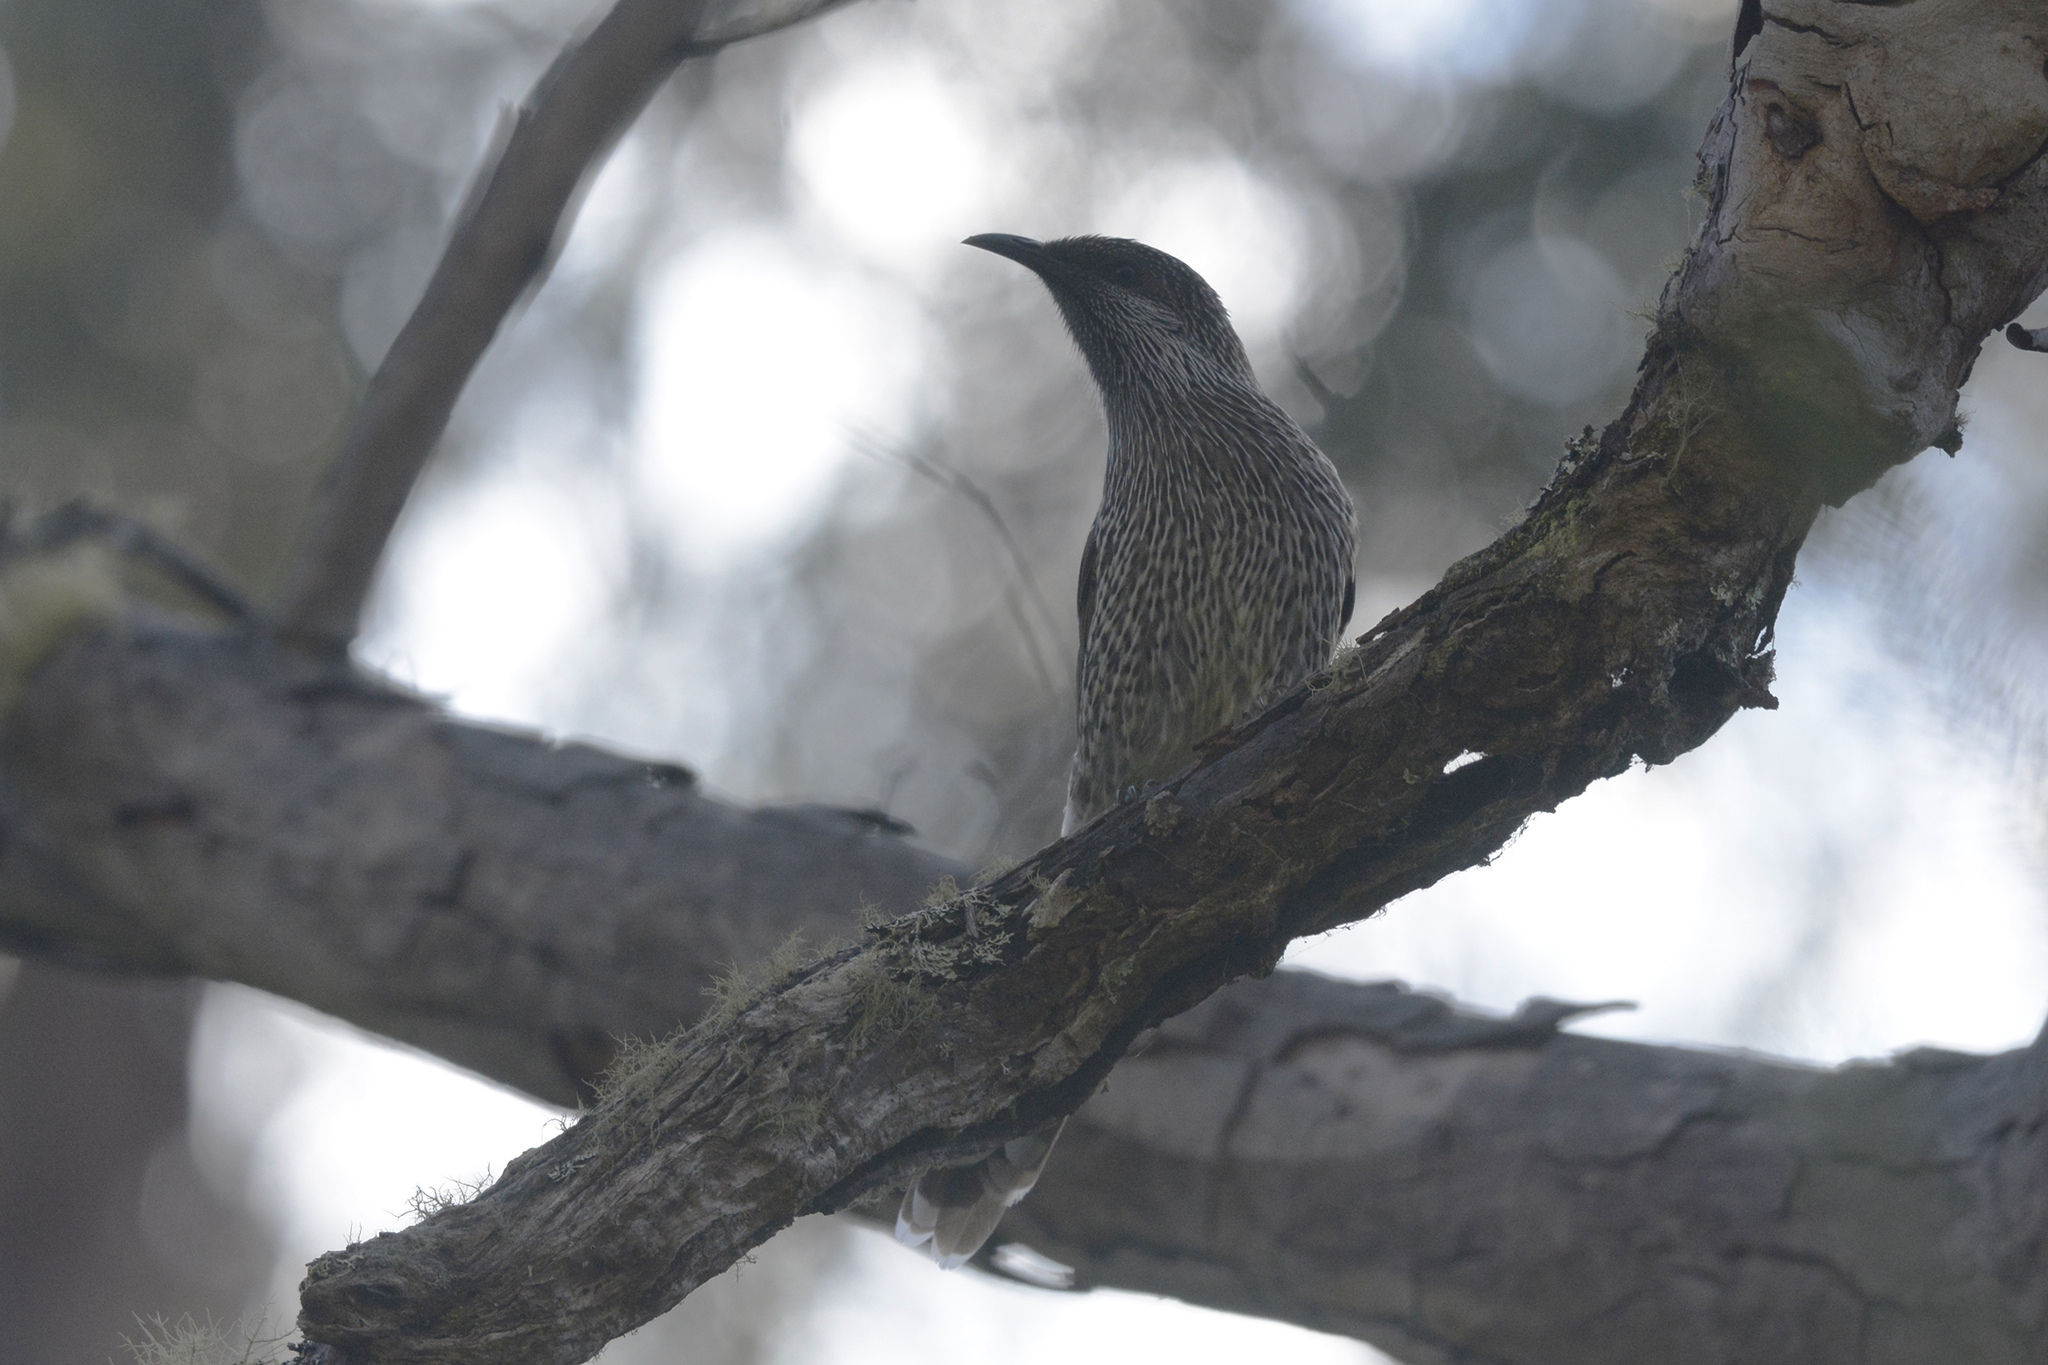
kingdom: Animalia
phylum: Chordata
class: Aves
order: Passeriformes
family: Meliphagidae
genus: Anthochaera
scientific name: Anthochaera chrysoptera
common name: Little wattlebird
